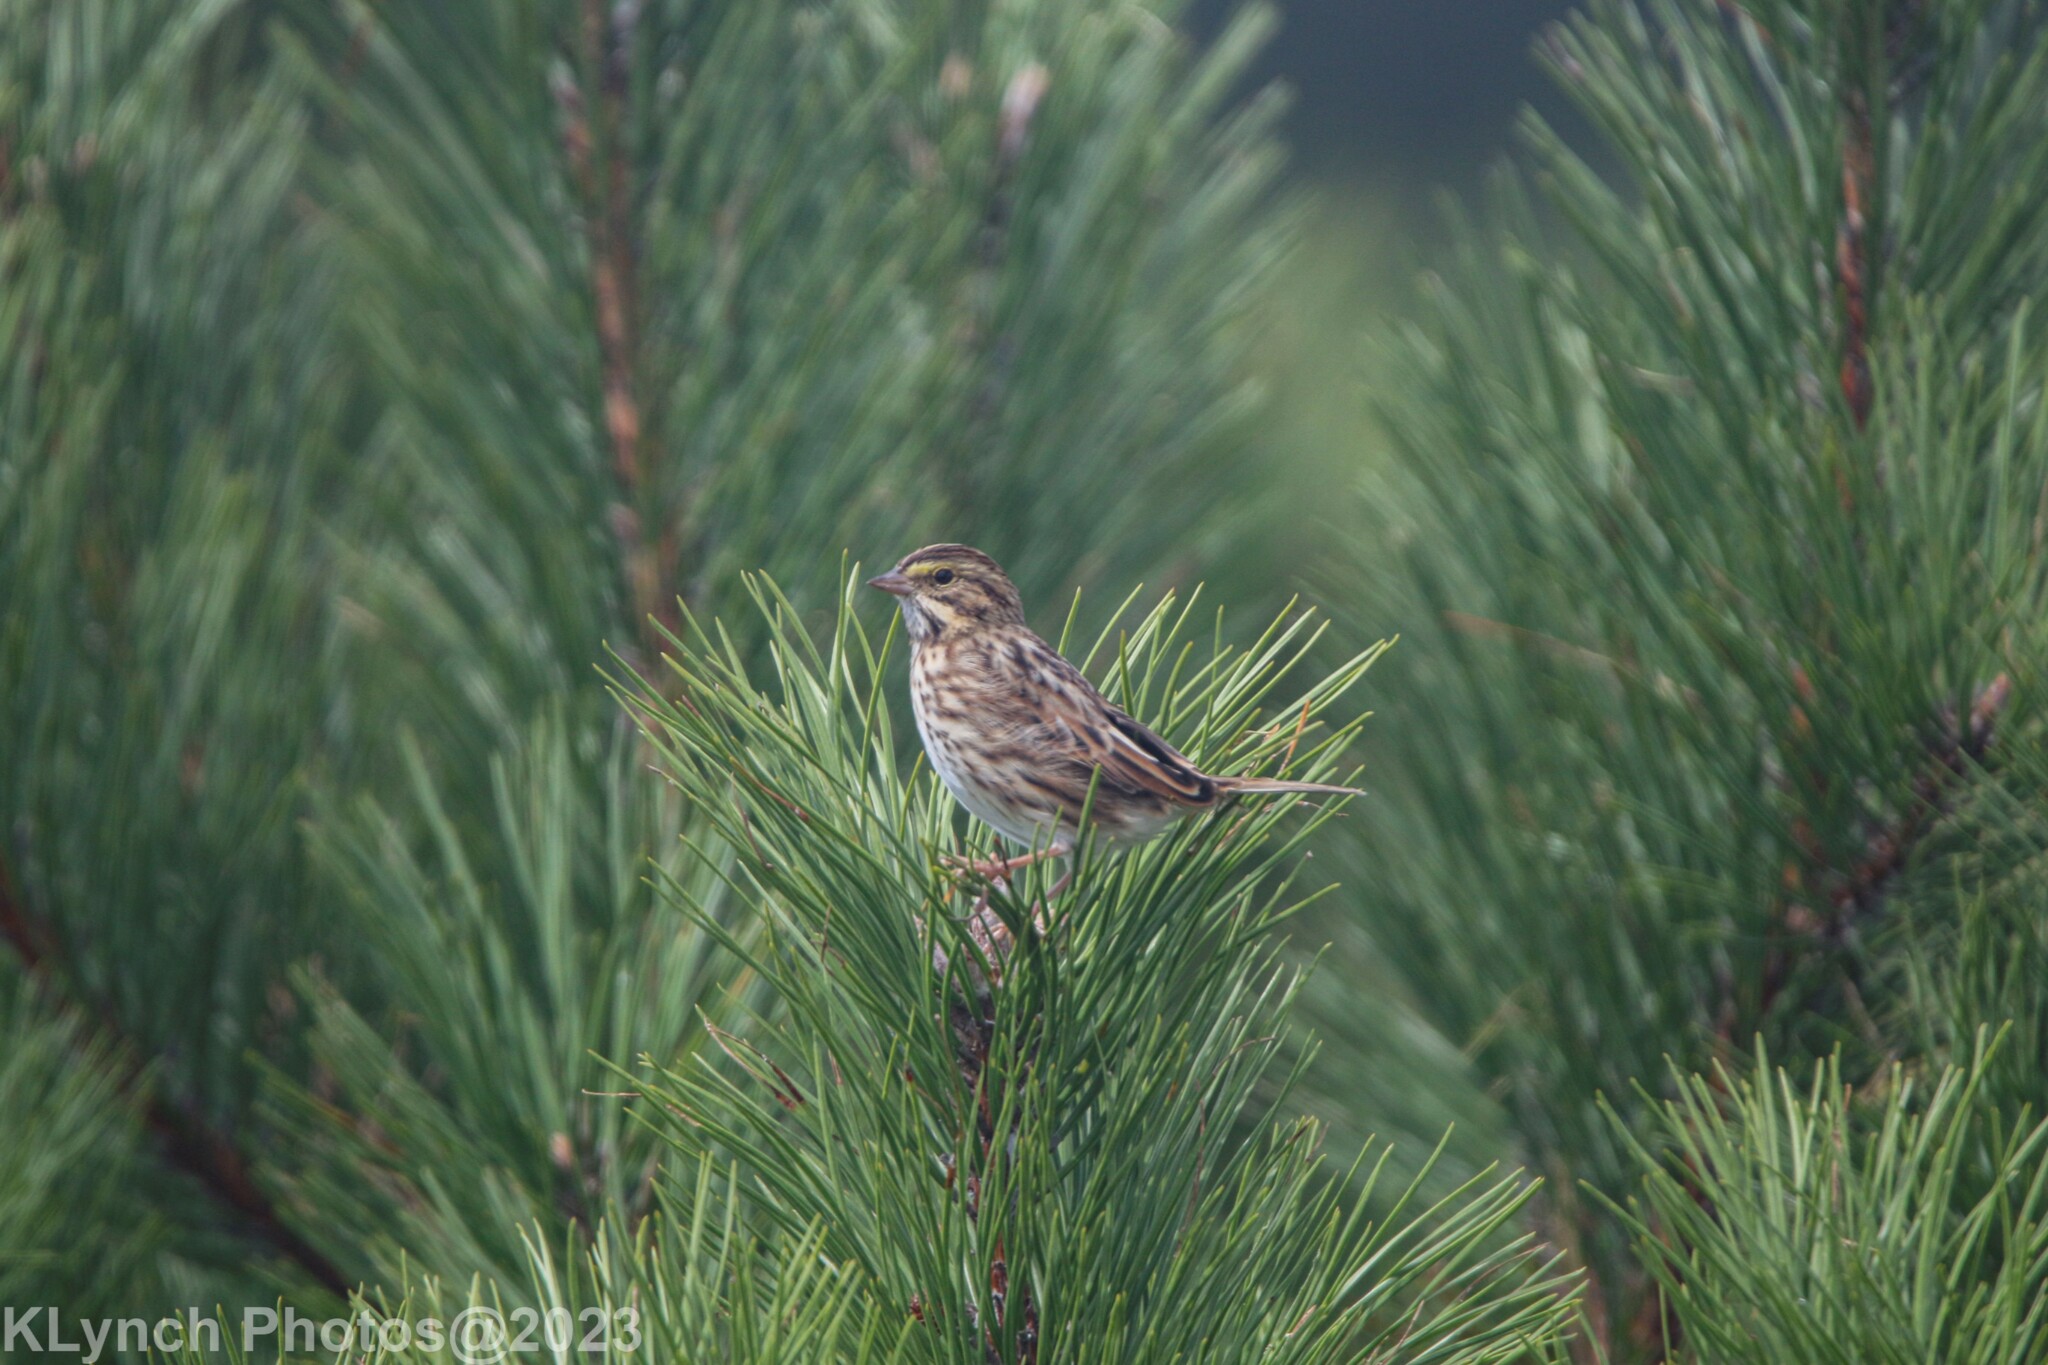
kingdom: Animalia
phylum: Chordata
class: Aves
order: Passeriformes
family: Passerellidae
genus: Passerculus
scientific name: Passerculus sandwichensis
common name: Savannah sparrow
